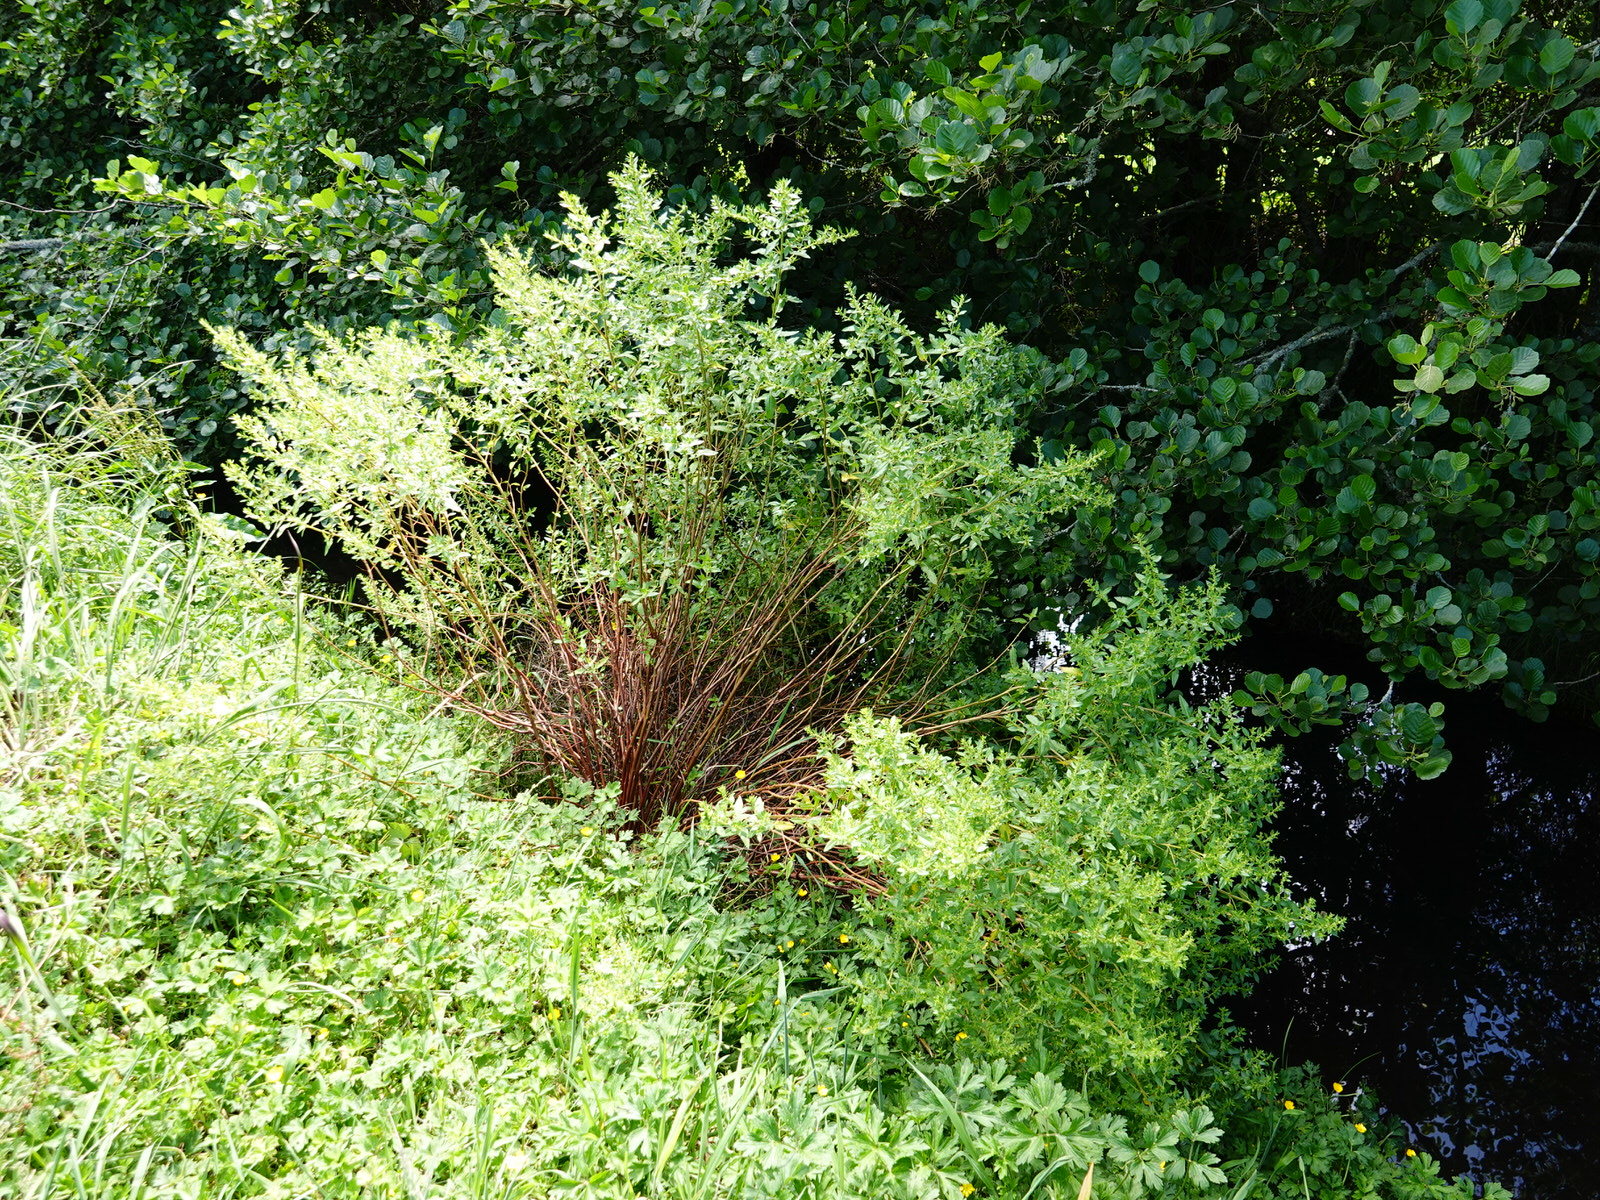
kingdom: Plantae
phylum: Tracheophyta
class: Magnoliopsida
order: Saxifragales
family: Haloragaceae
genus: Haloragis
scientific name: Haloragis erecta
